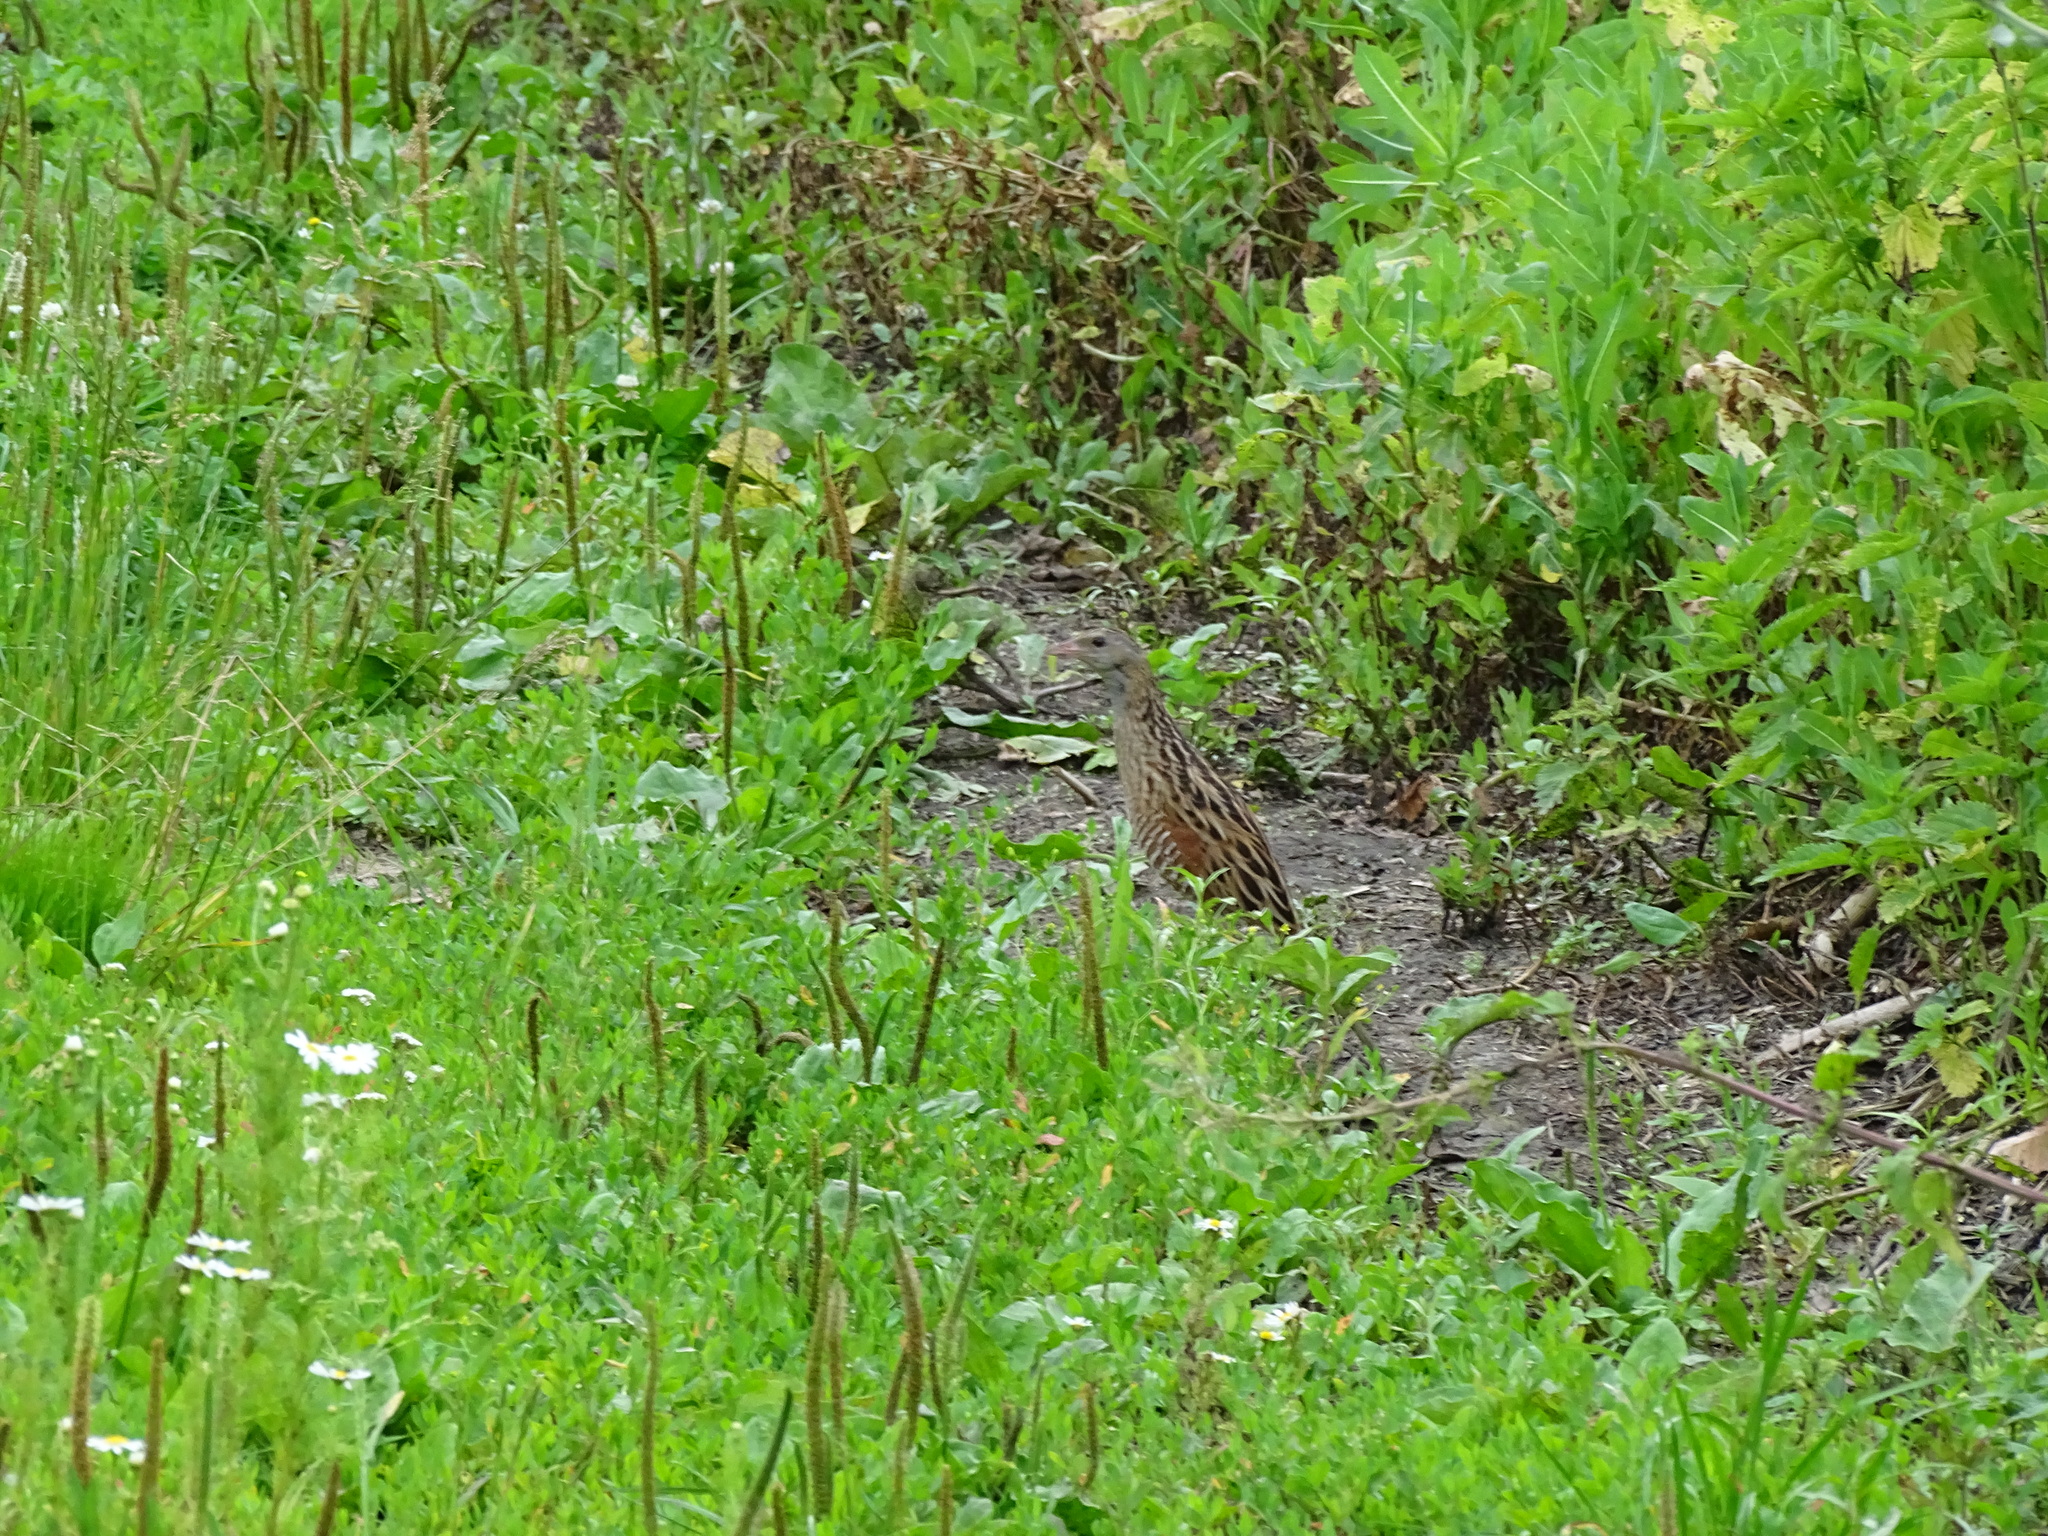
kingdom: Animalia
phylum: Chordata
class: Aves
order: Gruiformes
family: Rallidae
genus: Crex
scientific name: Crex crex
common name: Corn crake
